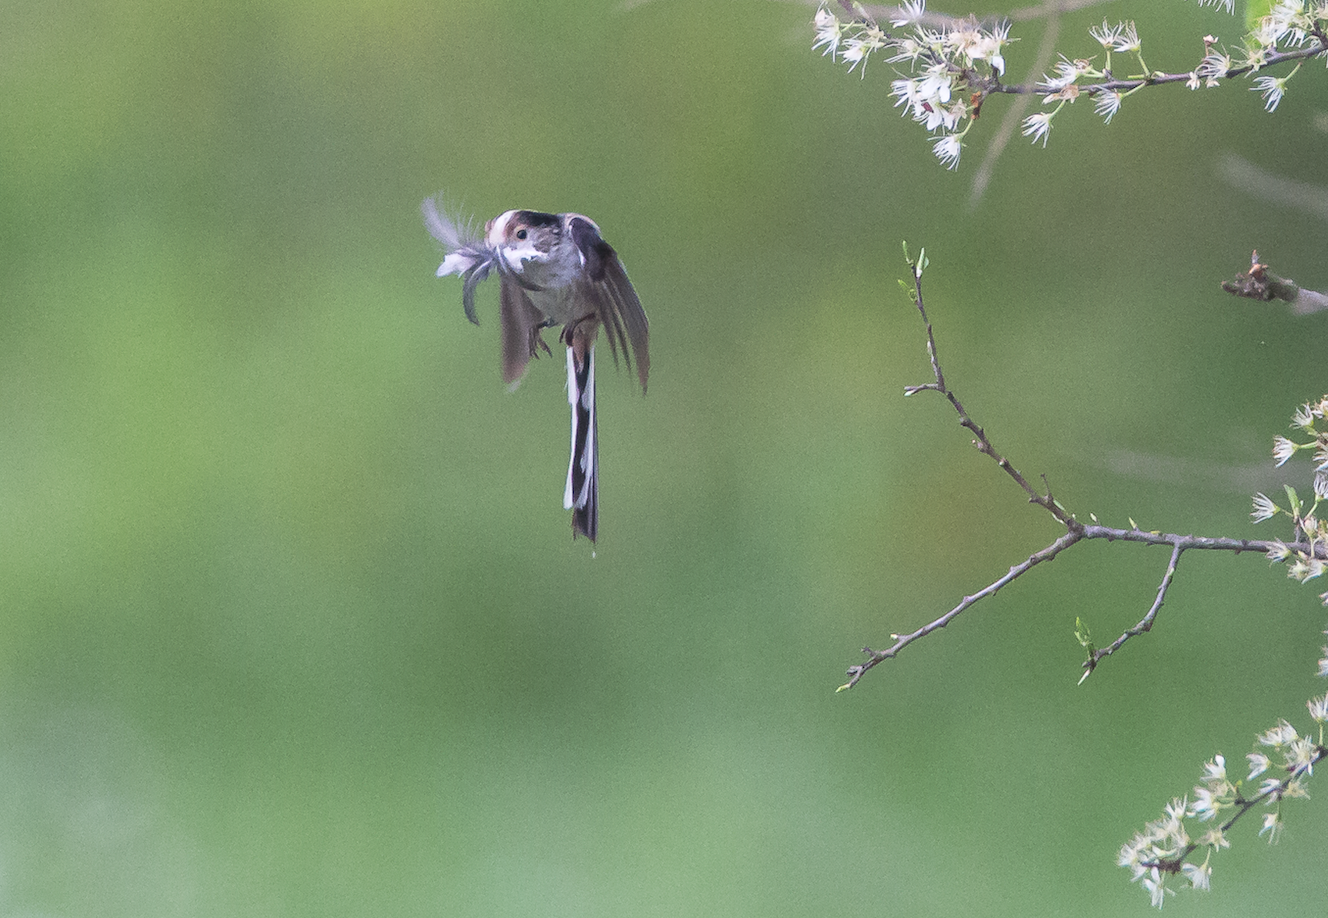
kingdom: Animalia
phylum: Chordata
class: Aves
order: Passeriformes
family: Aegithalidae
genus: Aegithalos
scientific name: Aegithalos caudatus
